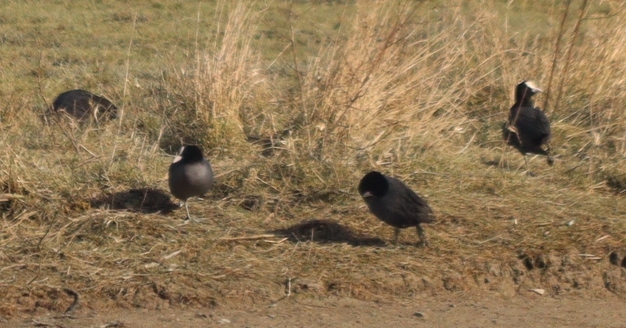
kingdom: Animalia
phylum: Chordata
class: Aves
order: Gruiformes
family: Rallidae
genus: Fulica
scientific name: Fulica atra
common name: Eurasian coot
